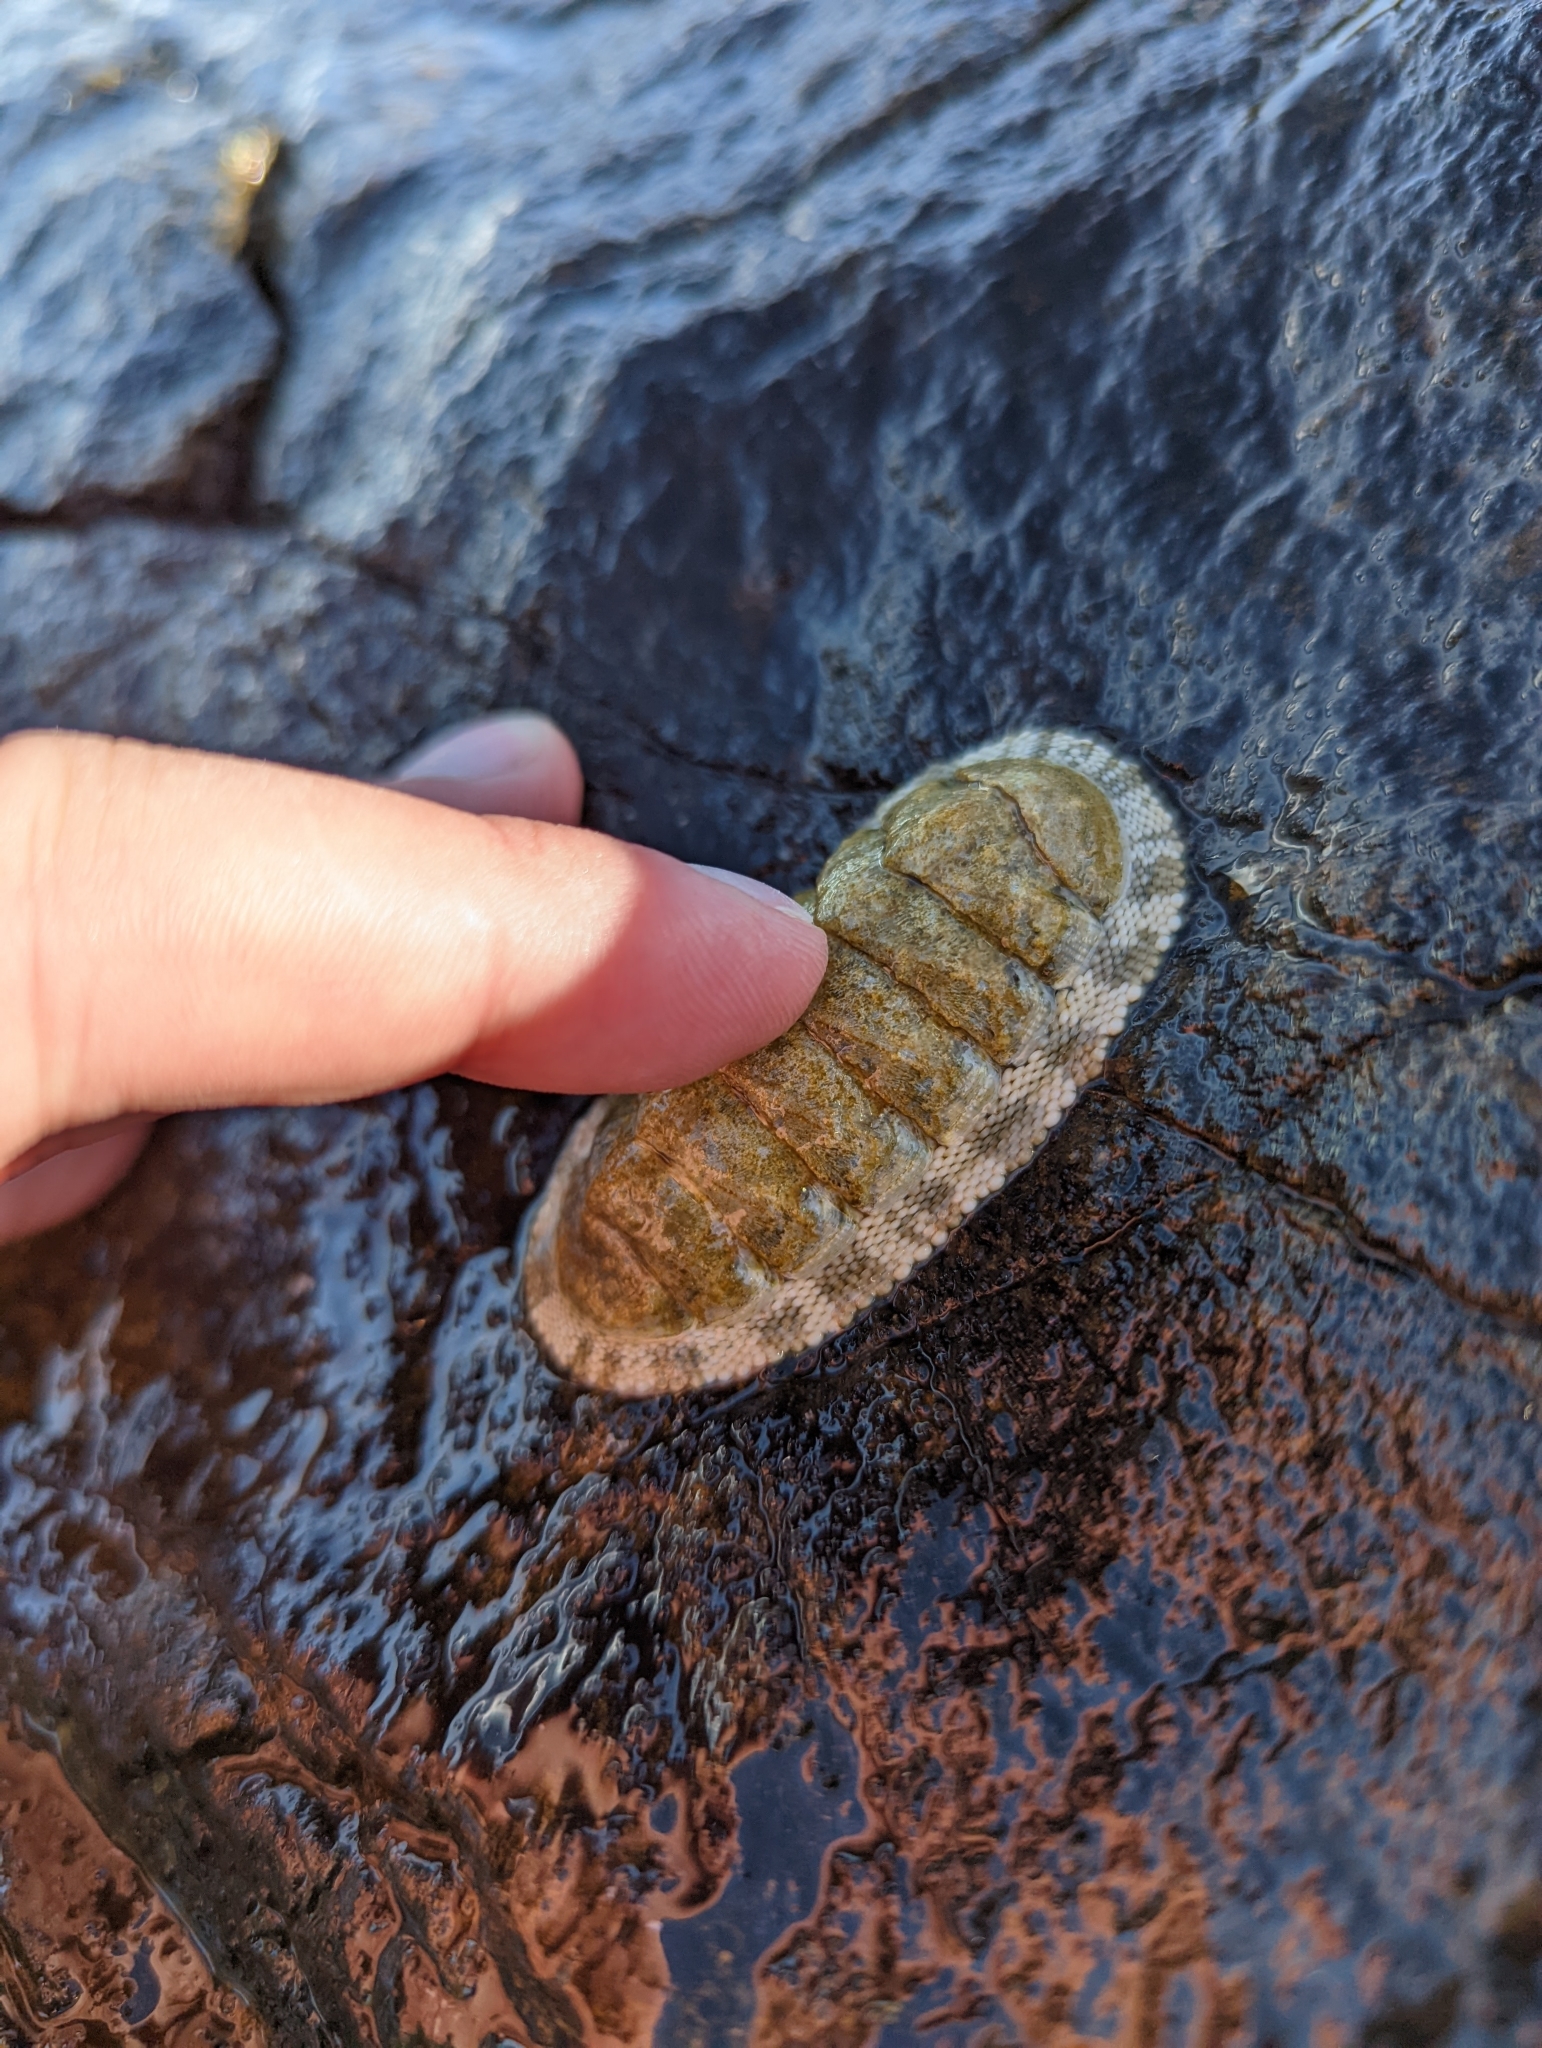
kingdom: Animalia
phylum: Mollusca
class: Polyplacophora
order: Chitonida
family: Chitonidae
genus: Chiton
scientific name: Chiton squamosus
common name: Squamose chiton
